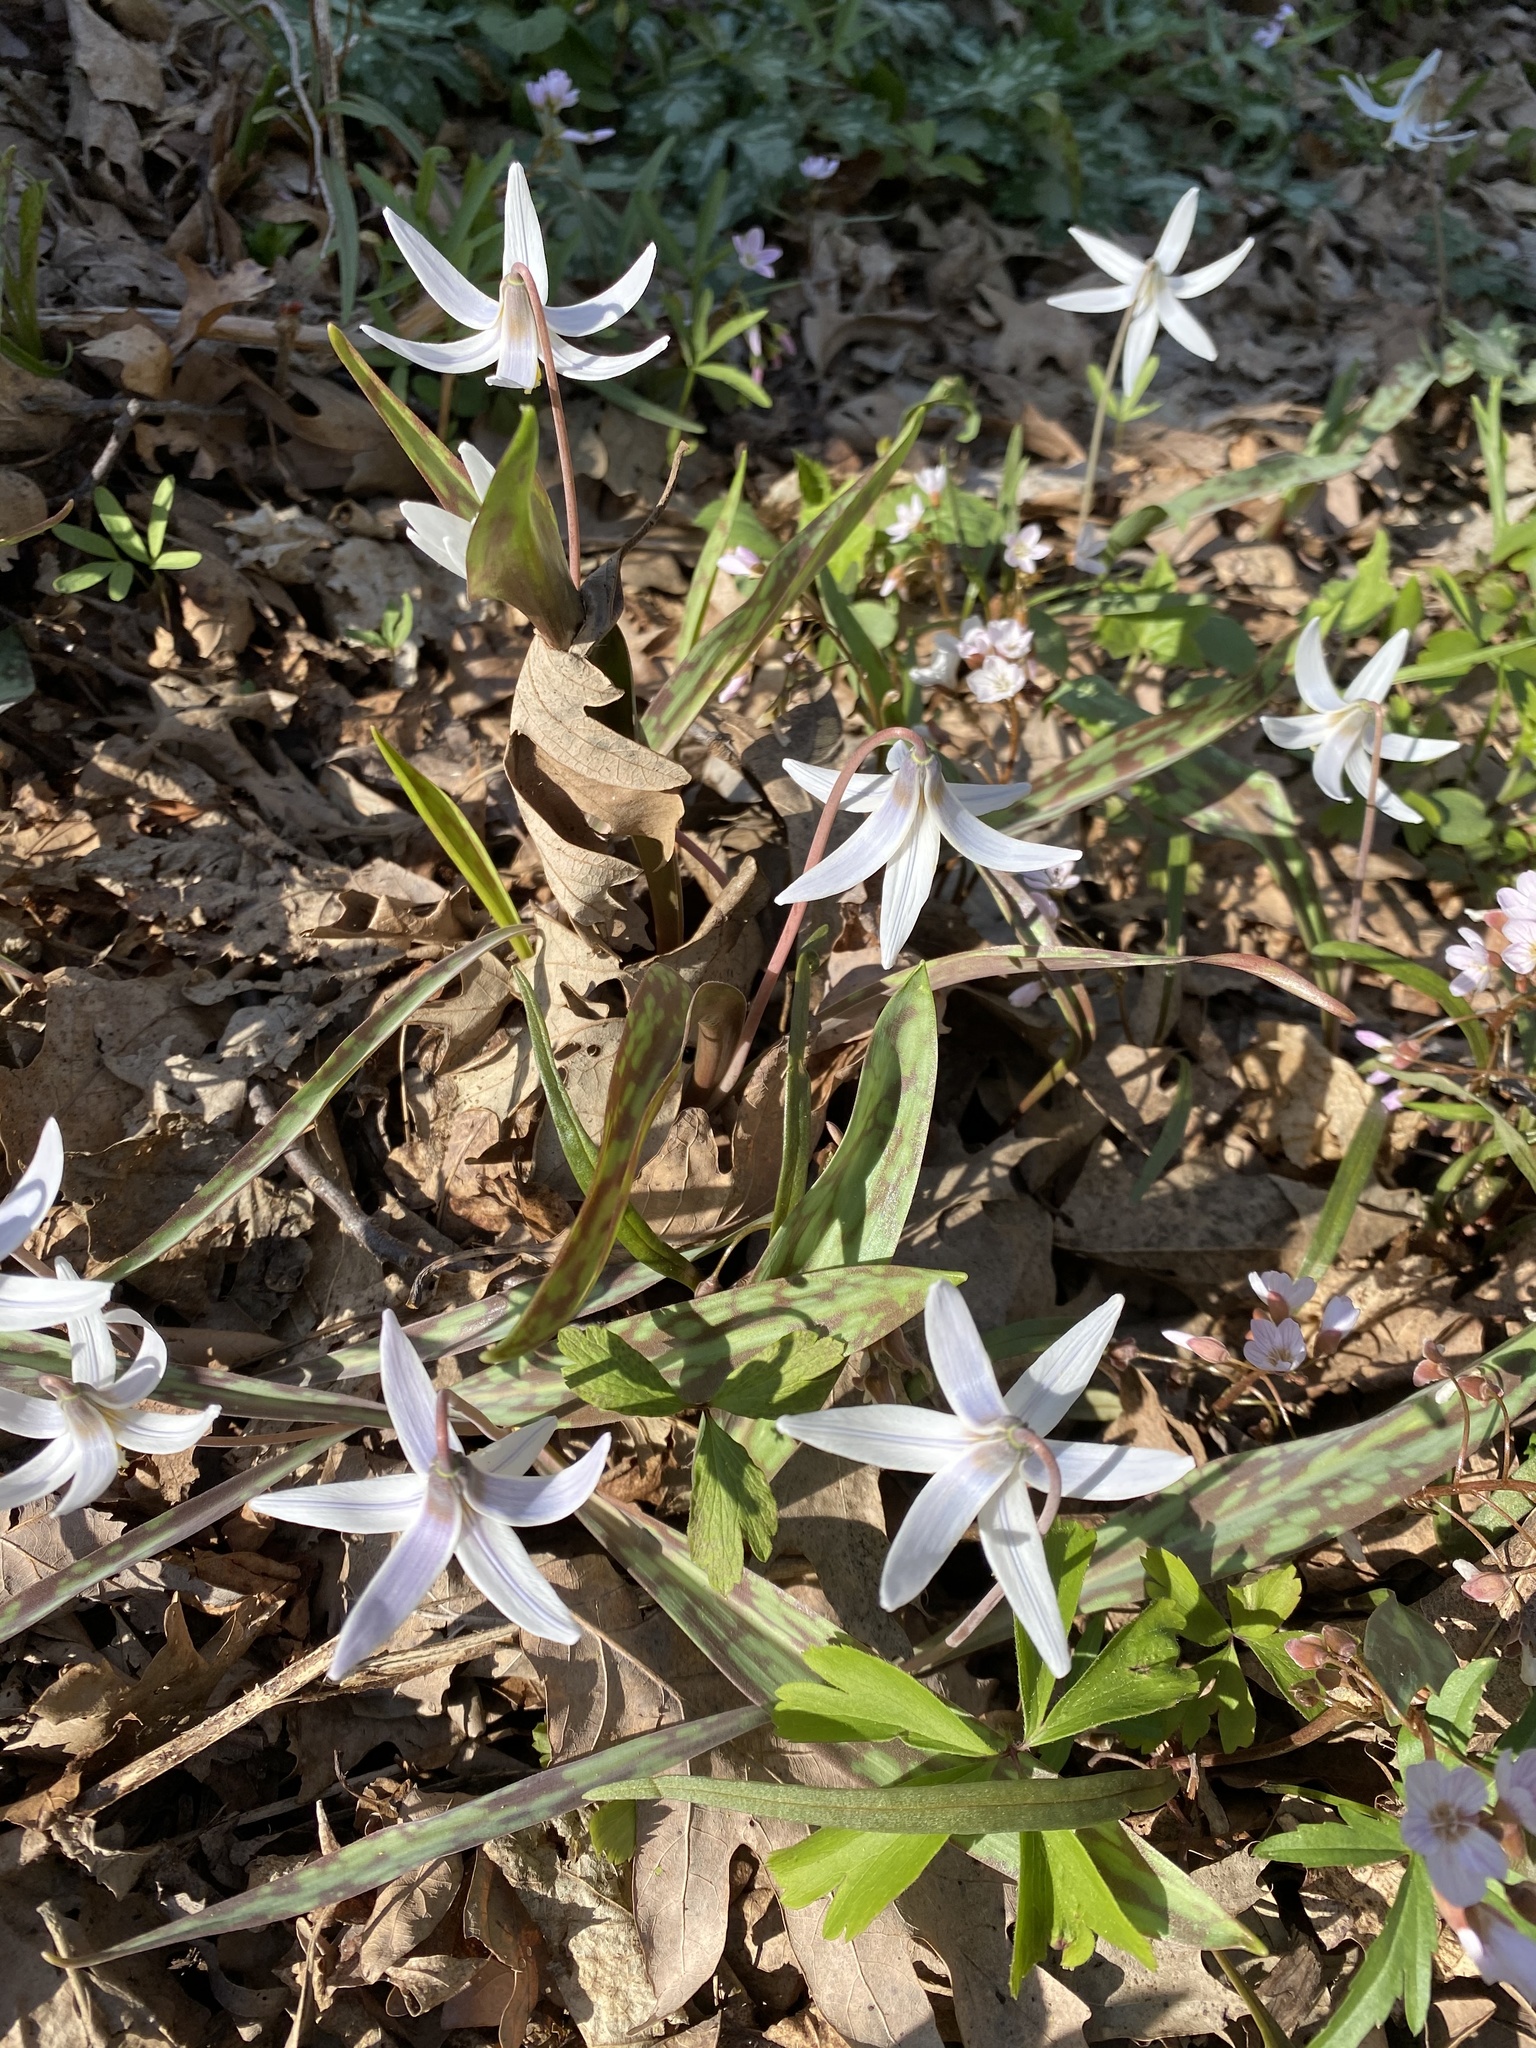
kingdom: Plantae
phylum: Tracheophyta
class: Liliopsida
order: Liliales
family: Liliaceae
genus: Erythronium
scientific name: Erythronium albidum
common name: White trout-lily
